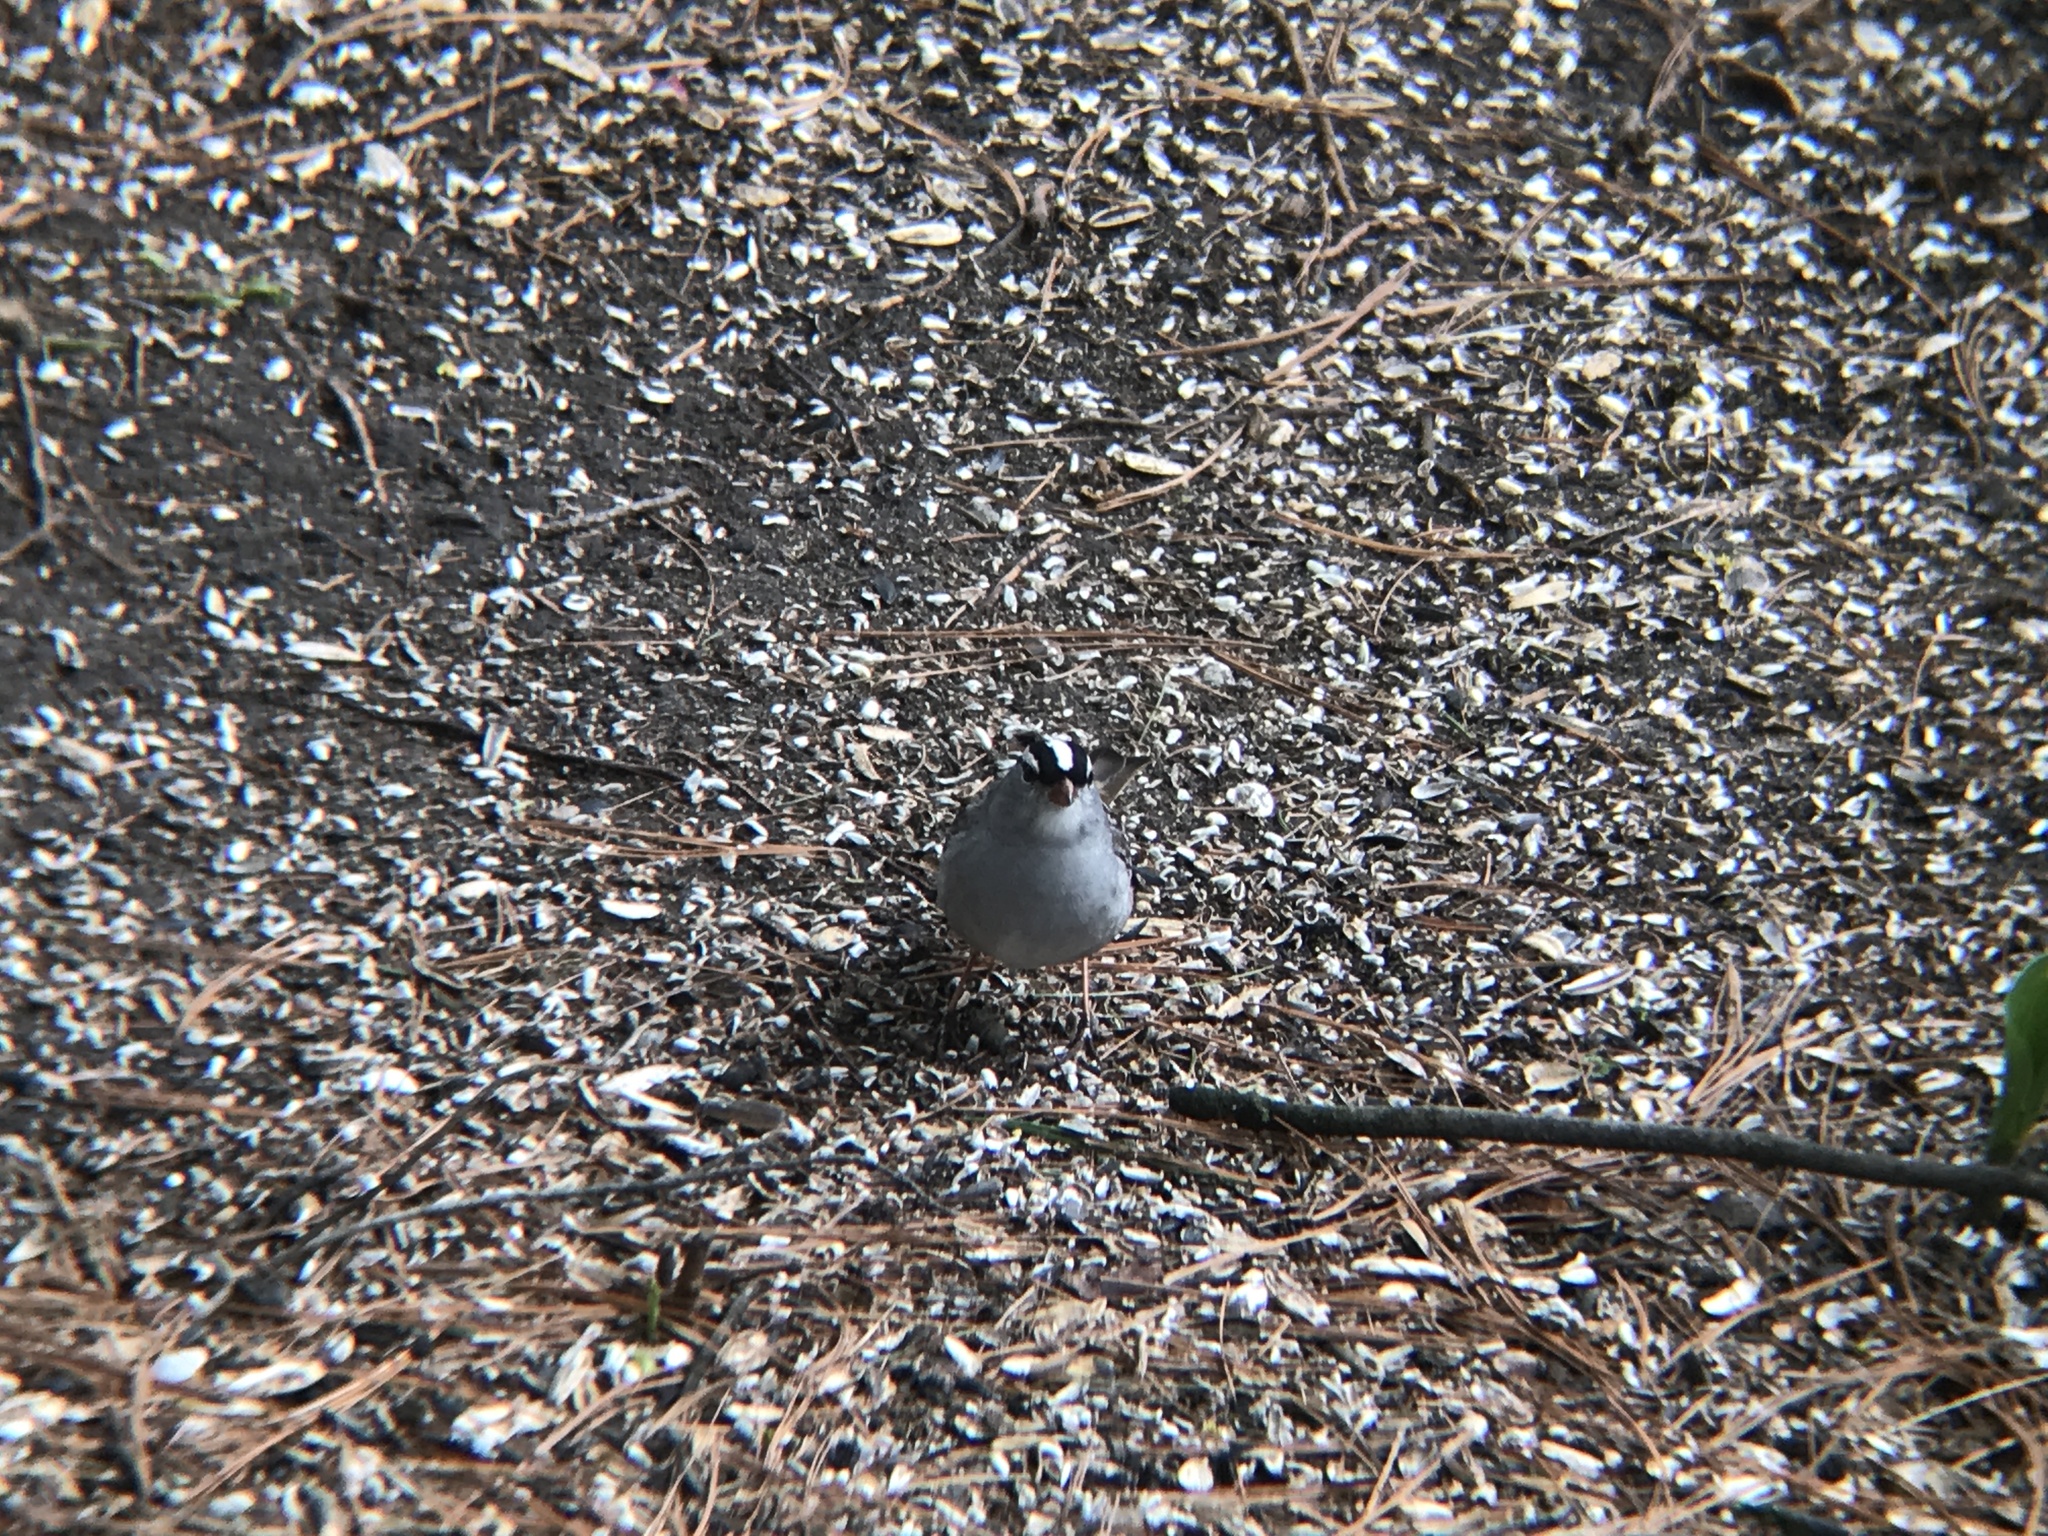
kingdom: Animalia
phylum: Chordata
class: Aves
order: Passeriformes
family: Passerellidae
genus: Zonotrichia
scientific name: Zonotrichia leucophrys
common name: White-crowned sparrow
